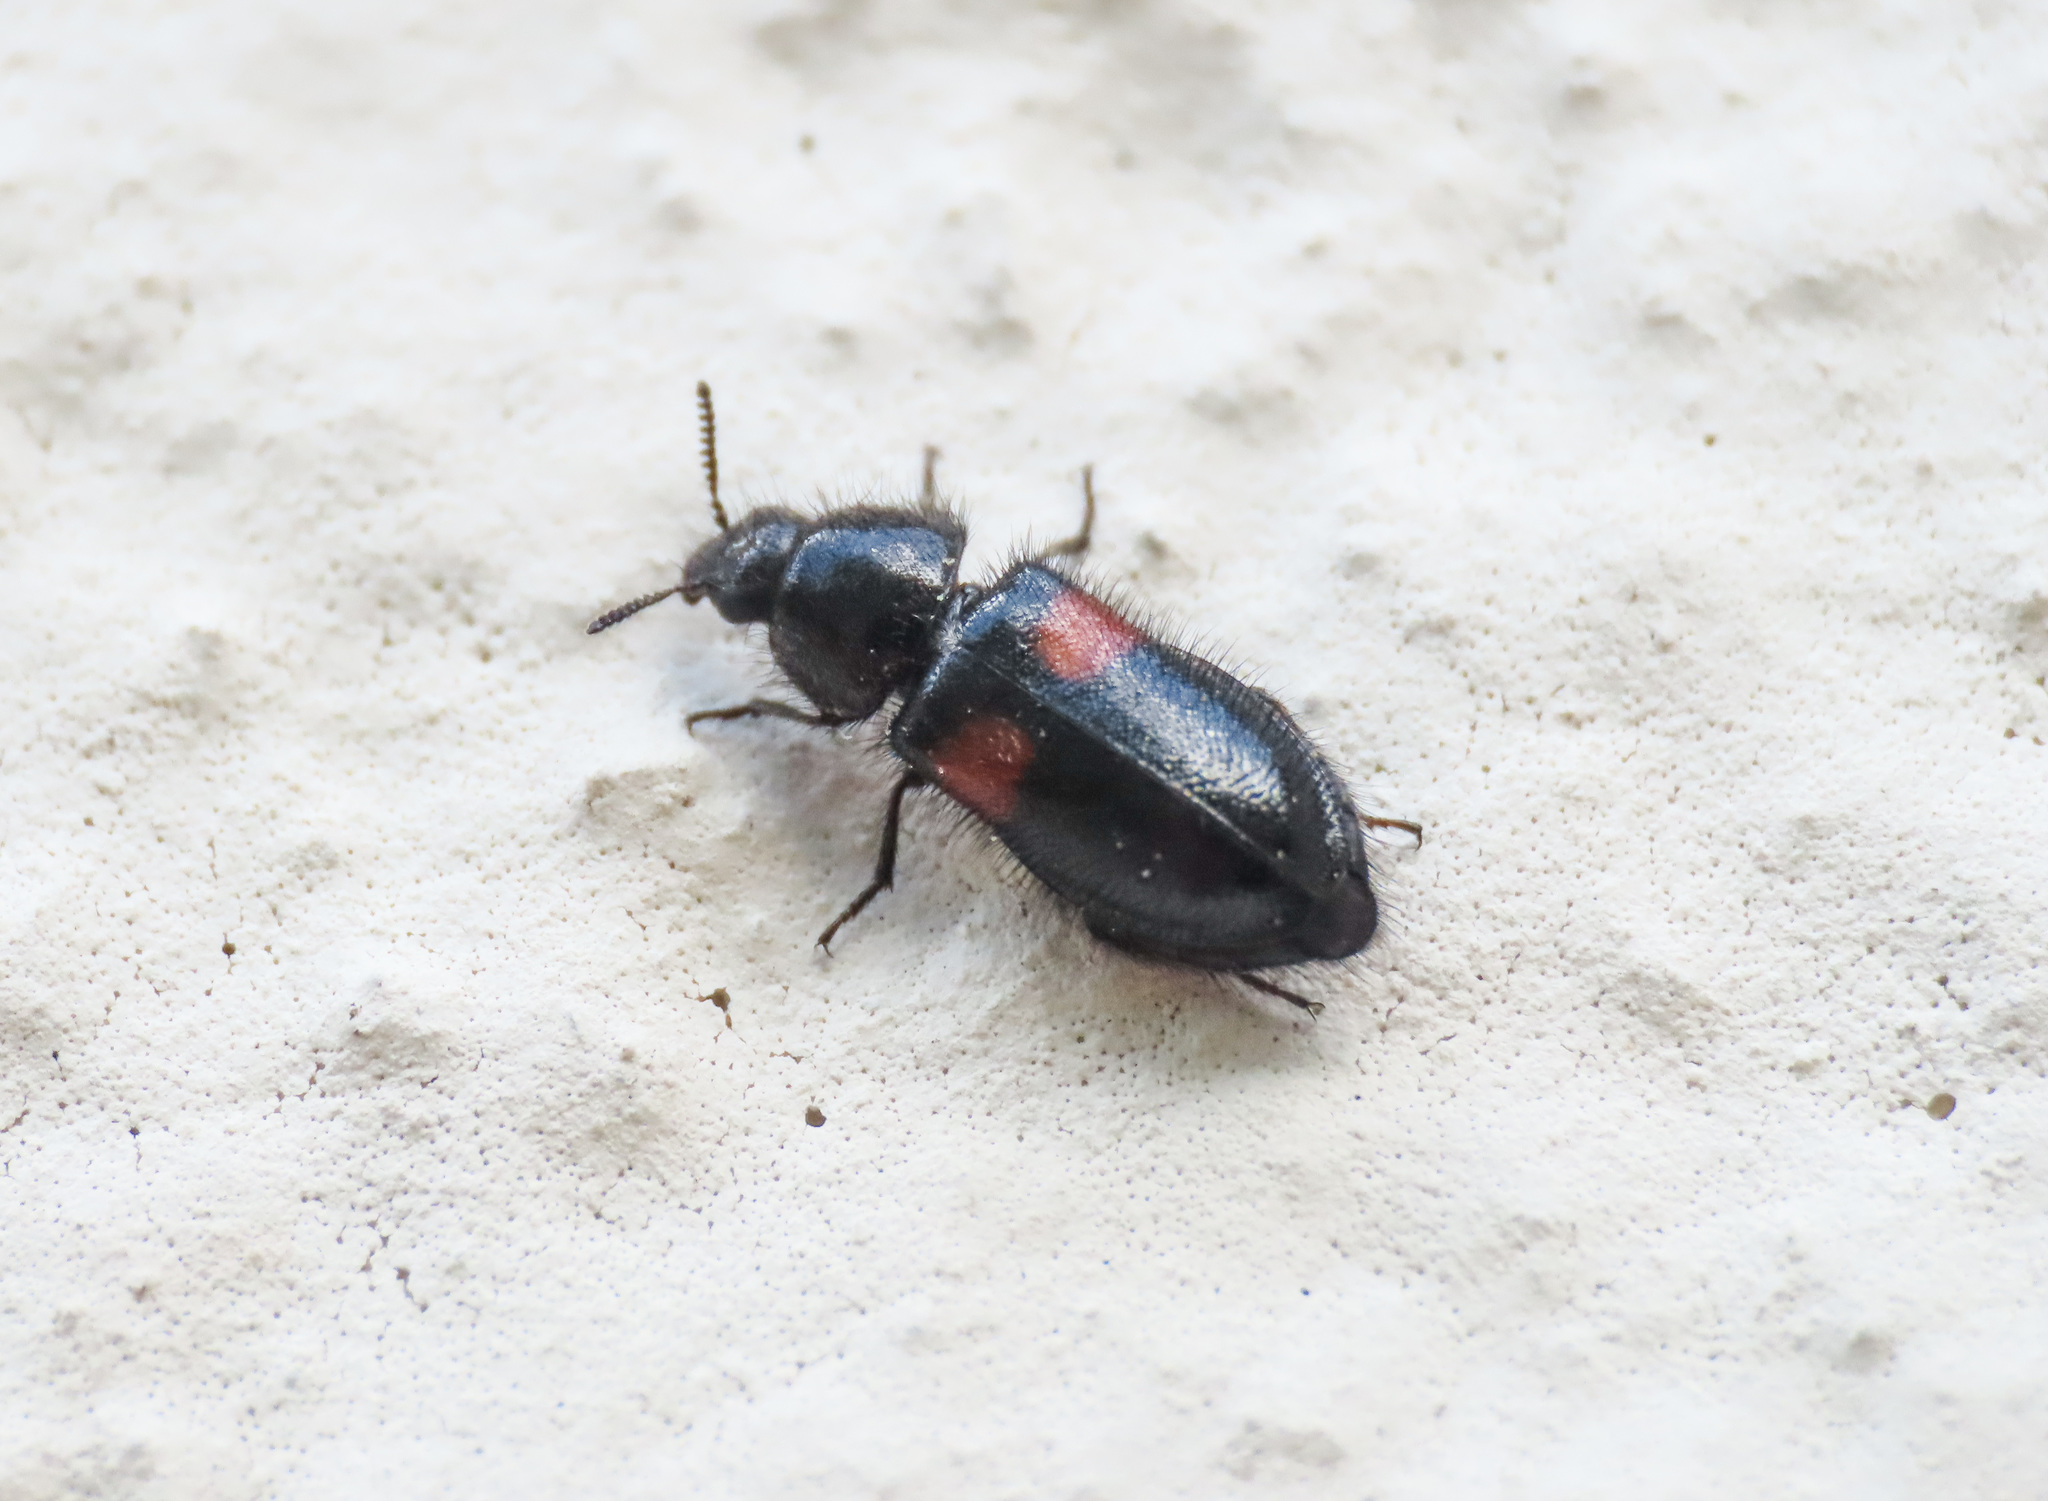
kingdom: Animalia
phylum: Arthropoda
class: Insecta
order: Coleoptera
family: Melyridae
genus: Divales
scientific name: Divales bipustulatus
